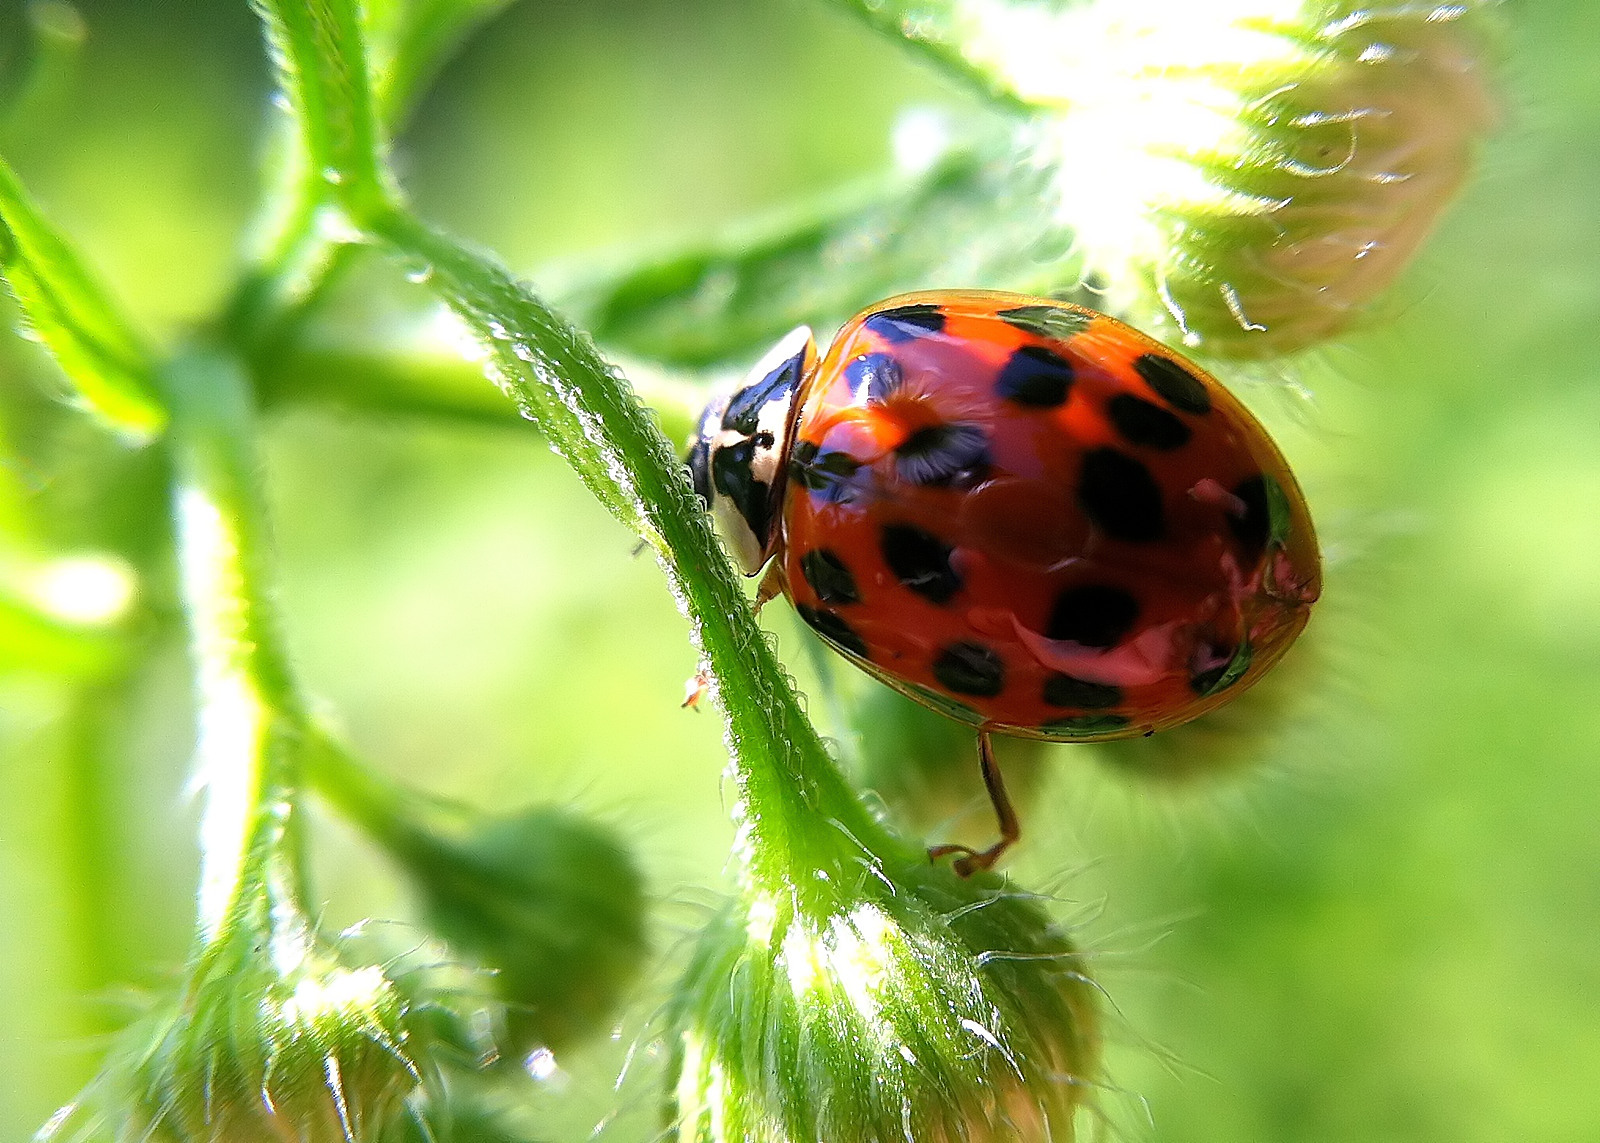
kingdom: Animalia
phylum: Arthropoda
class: Insecta
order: Coleoptera
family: Coccinellidae
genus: Harmonia
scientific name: Harmonia axyridis
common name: Harlequin ladybird
